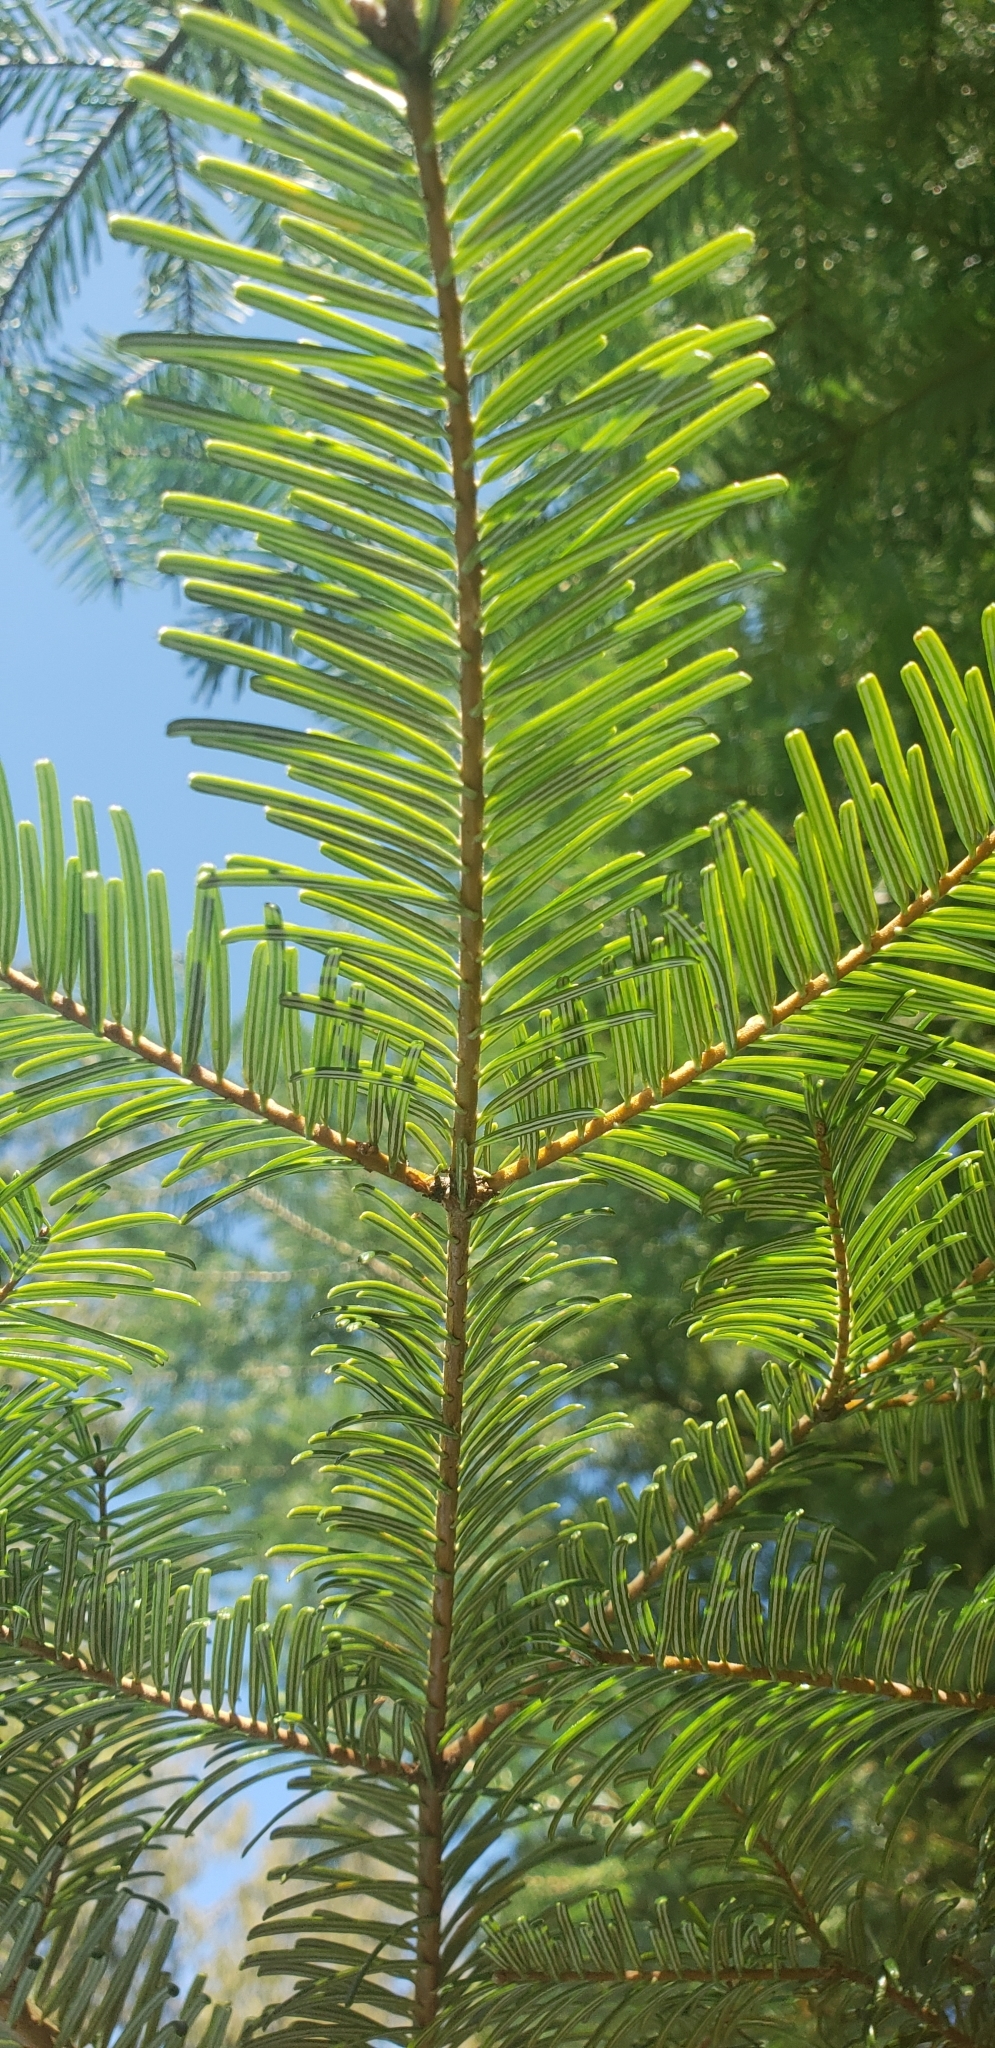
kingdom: Plantae
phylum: Tracheophyta
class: Pinopsida
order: Pinales
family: Pinaceae
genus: Abies
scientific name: Abies grandis
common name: Giant fir
